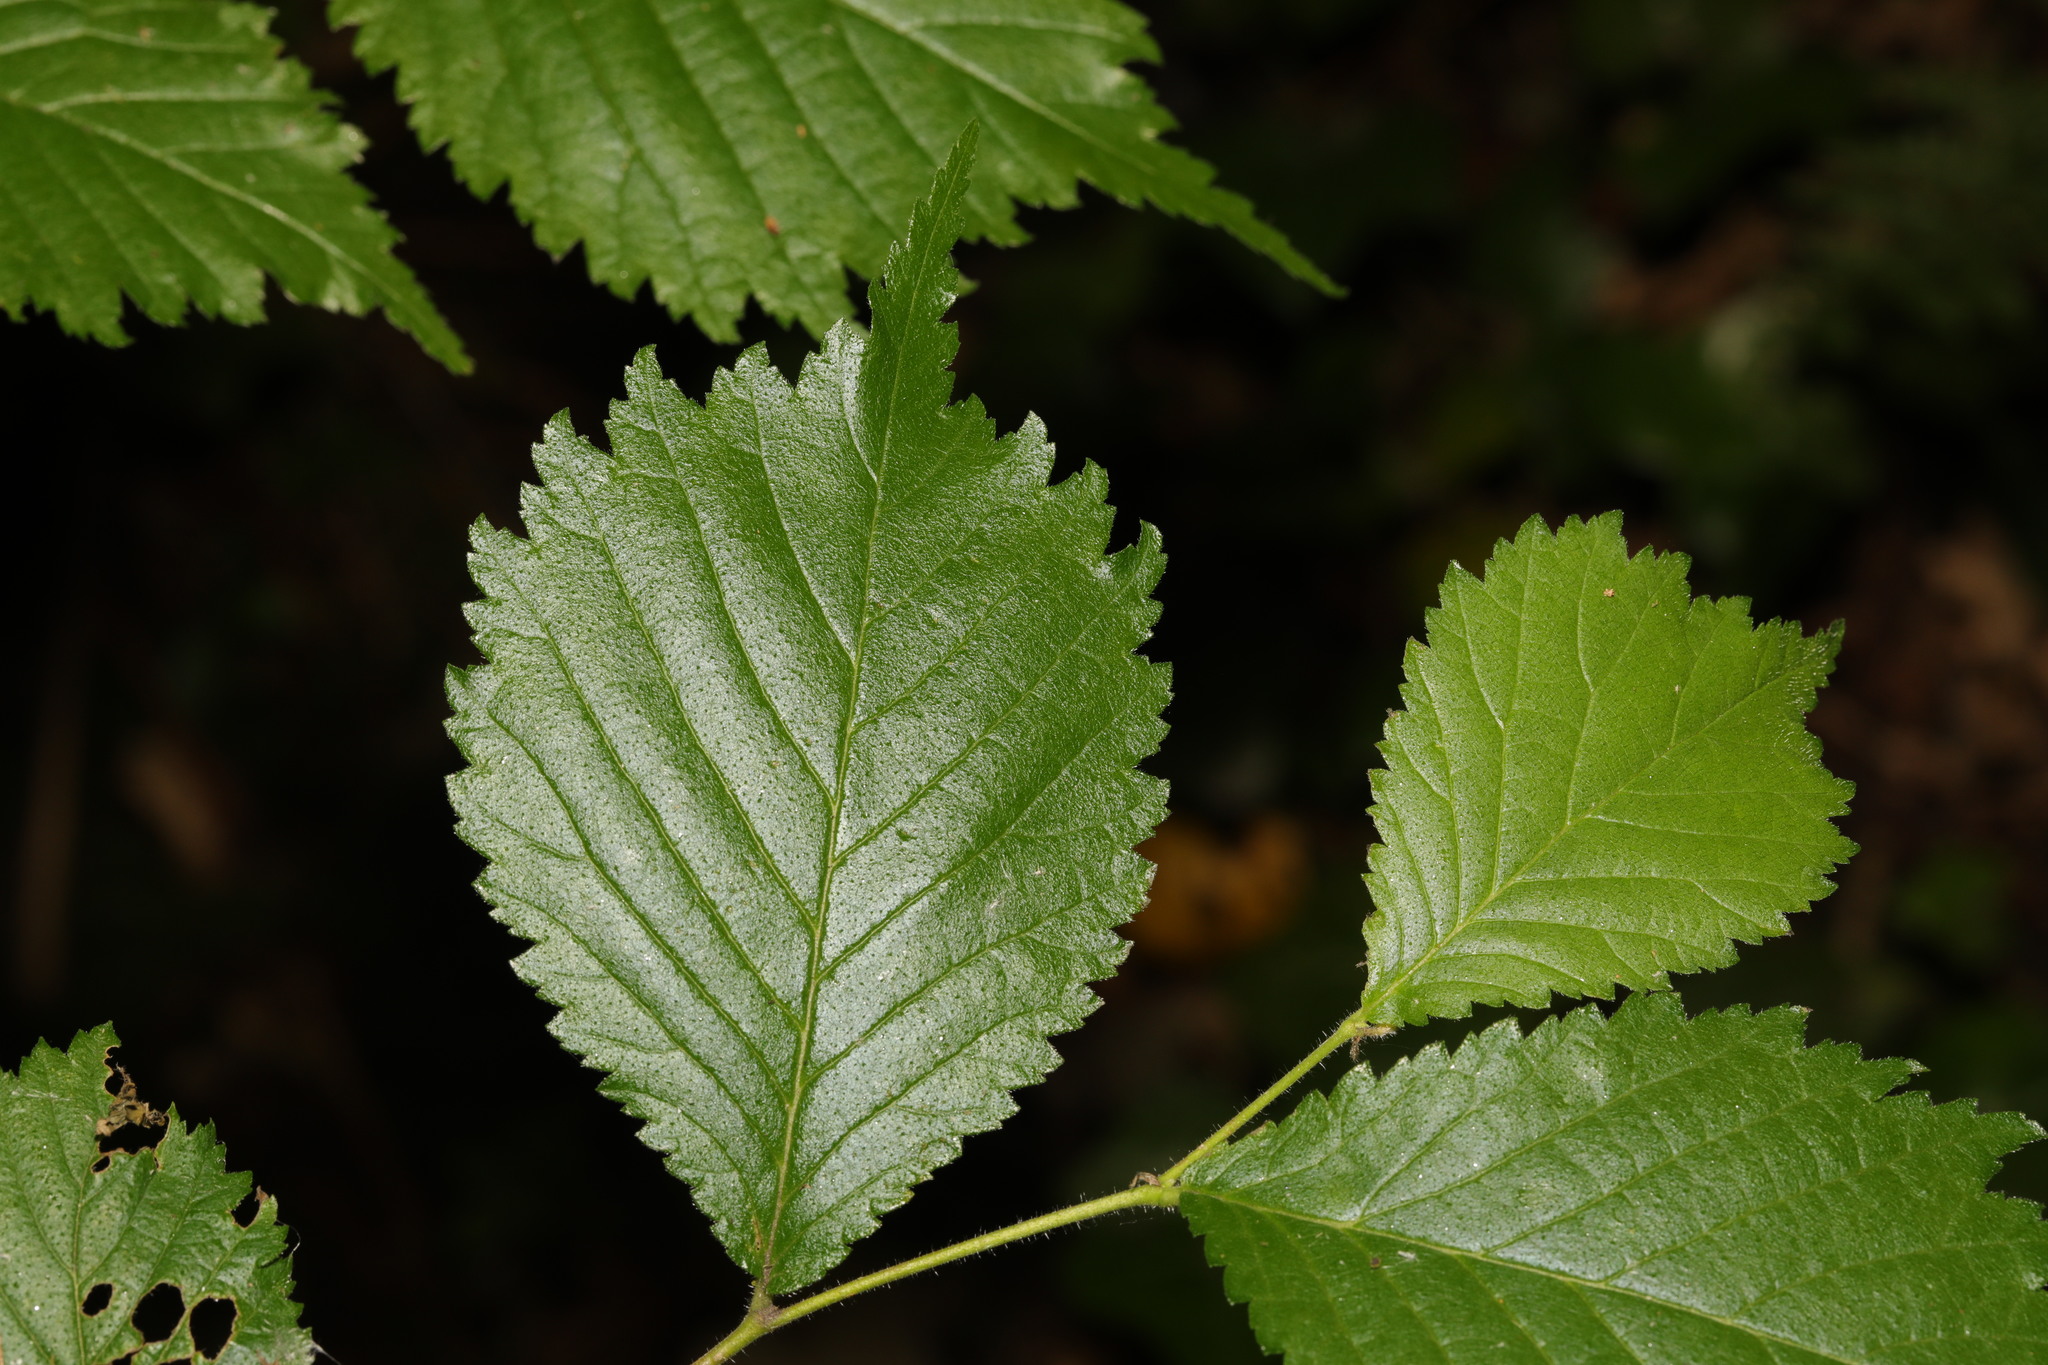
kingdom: Plantae
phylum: Tracheophyta
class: Magnoliopsida
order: Rosales
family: Ulmaceae
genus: Ulmus
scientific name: Ulmus glabra
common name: Wych elm
